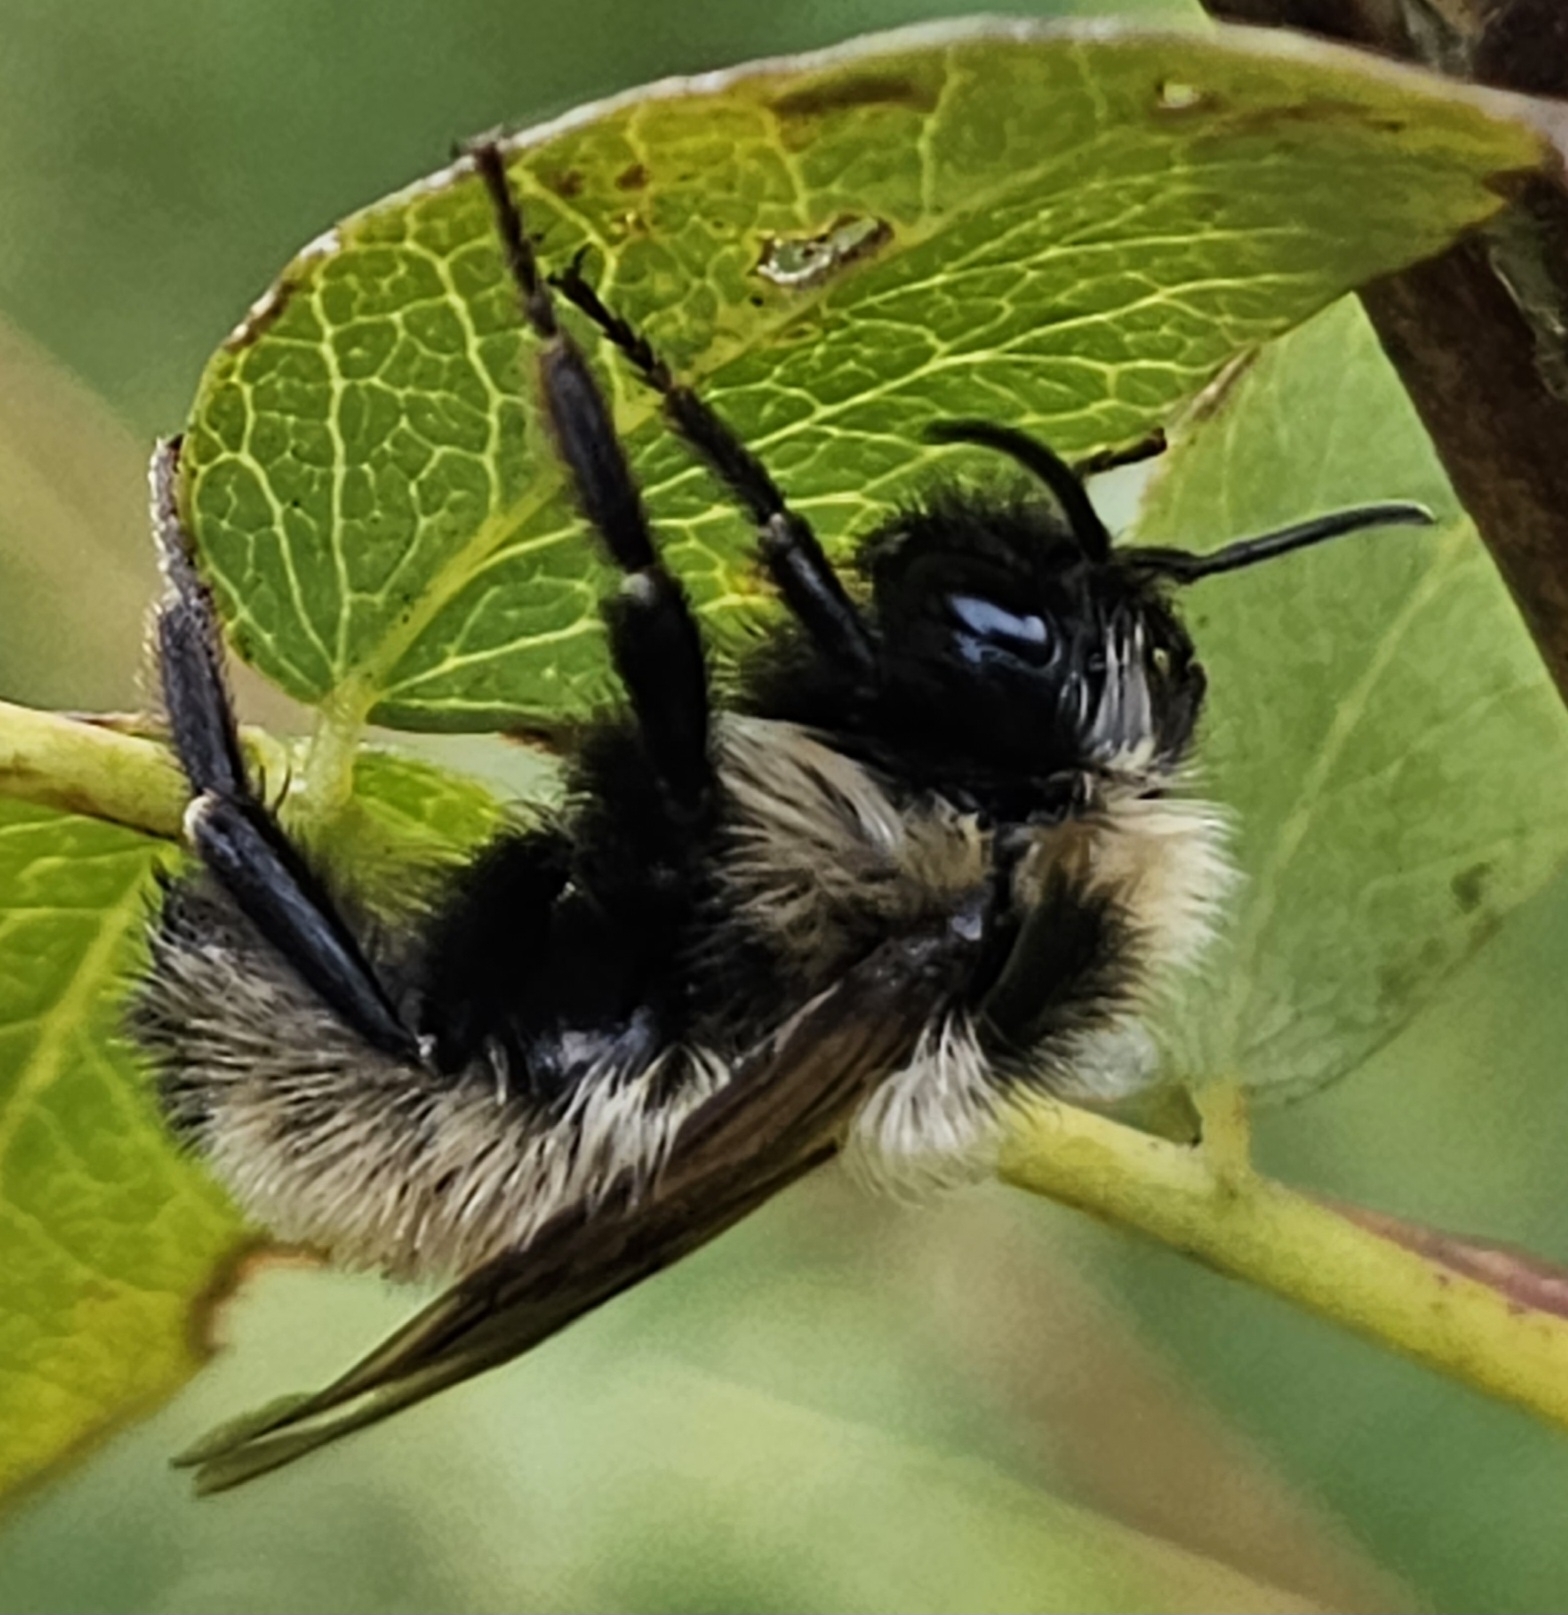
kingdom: Animalia
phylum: Arthropoda
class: Insecta
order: Hymenoptera
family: Apidae
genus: Bombus
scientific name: Bombus insularis
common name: Indiscriminate cuckoo bumble bee
